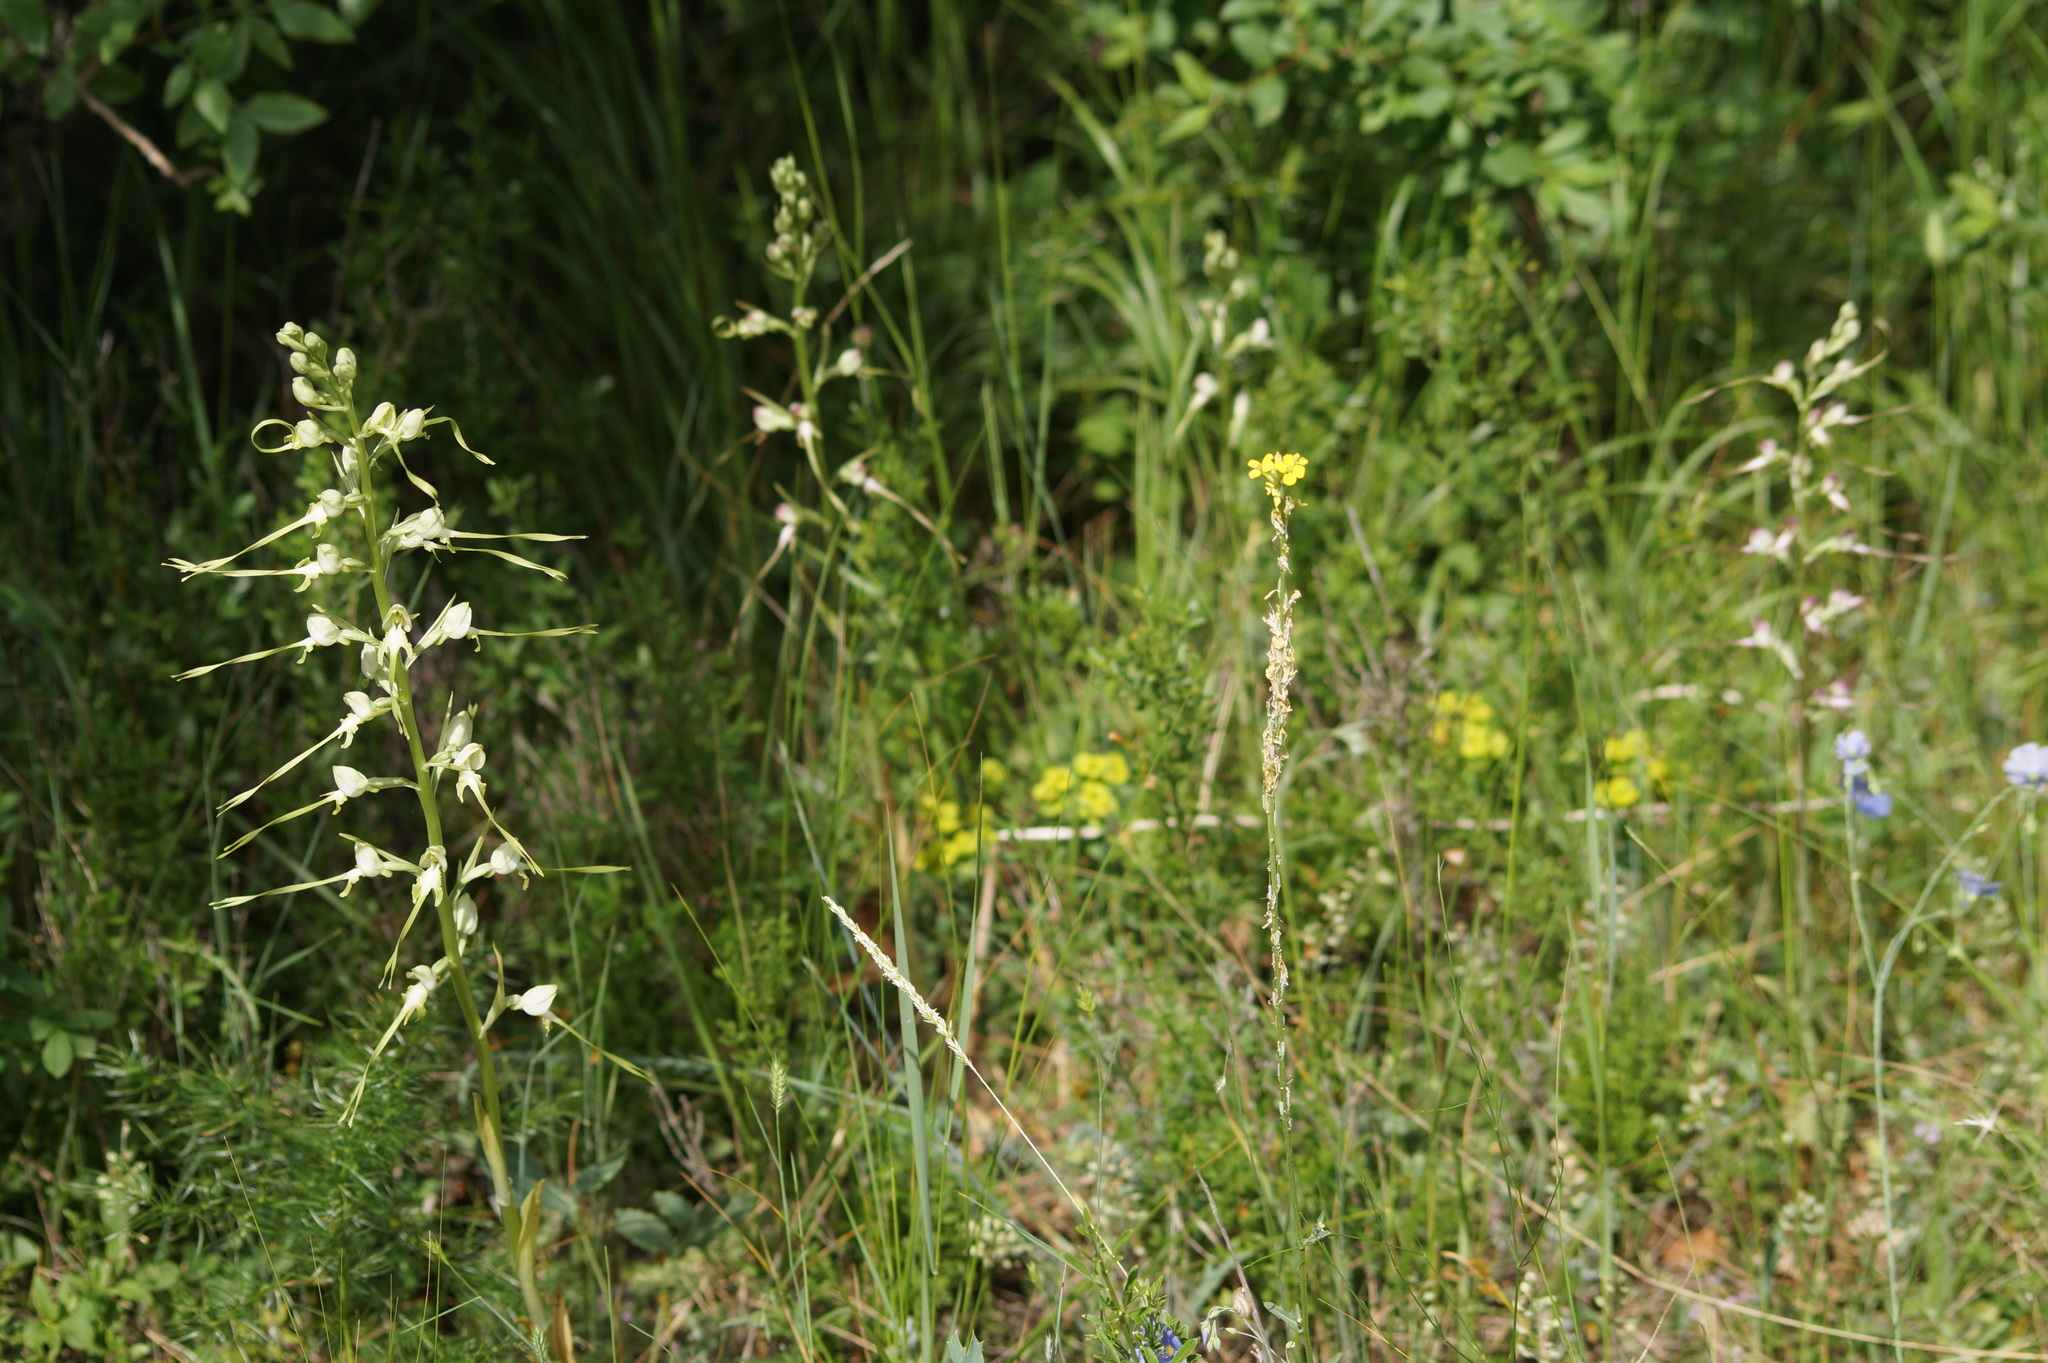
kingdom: Plantae
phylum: Tracheophyta
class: Liliopsida
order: Asparagales
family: Orchidaceae
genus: Himantoglossum
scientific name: Himantoglossum caprinum
